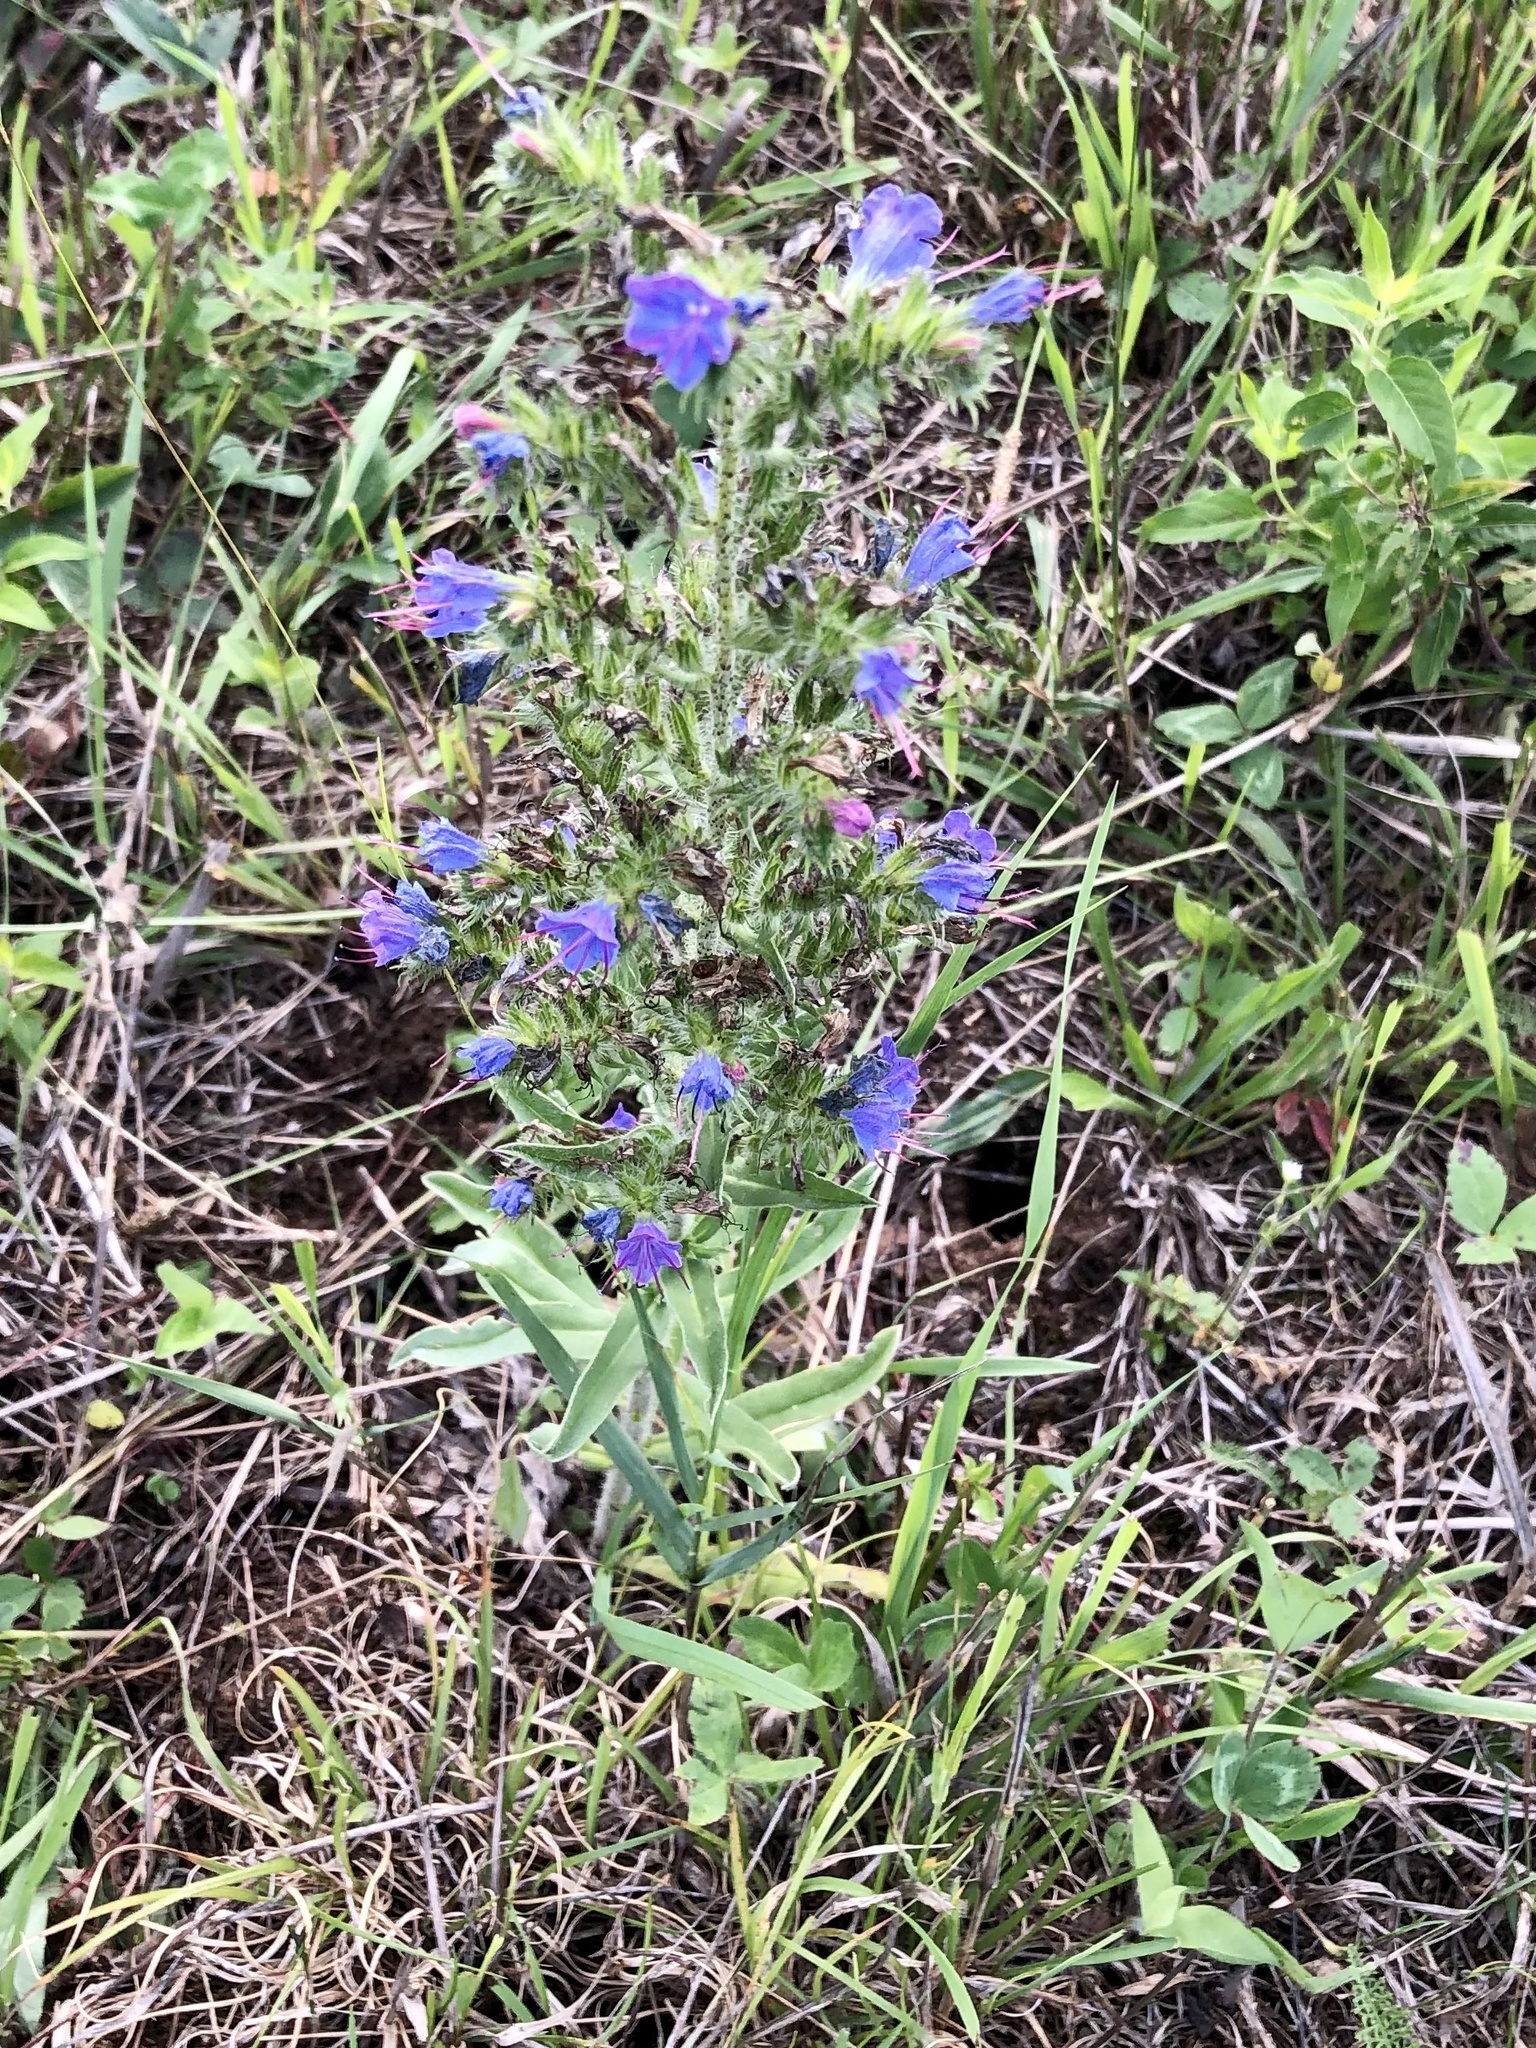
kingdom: Plantae
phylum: Tracheophyta
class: Magnoliopsida
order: Boraginales
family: Boraginaceae
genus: Echium
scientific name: Echium vulgare
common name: Common viper's bugloss
